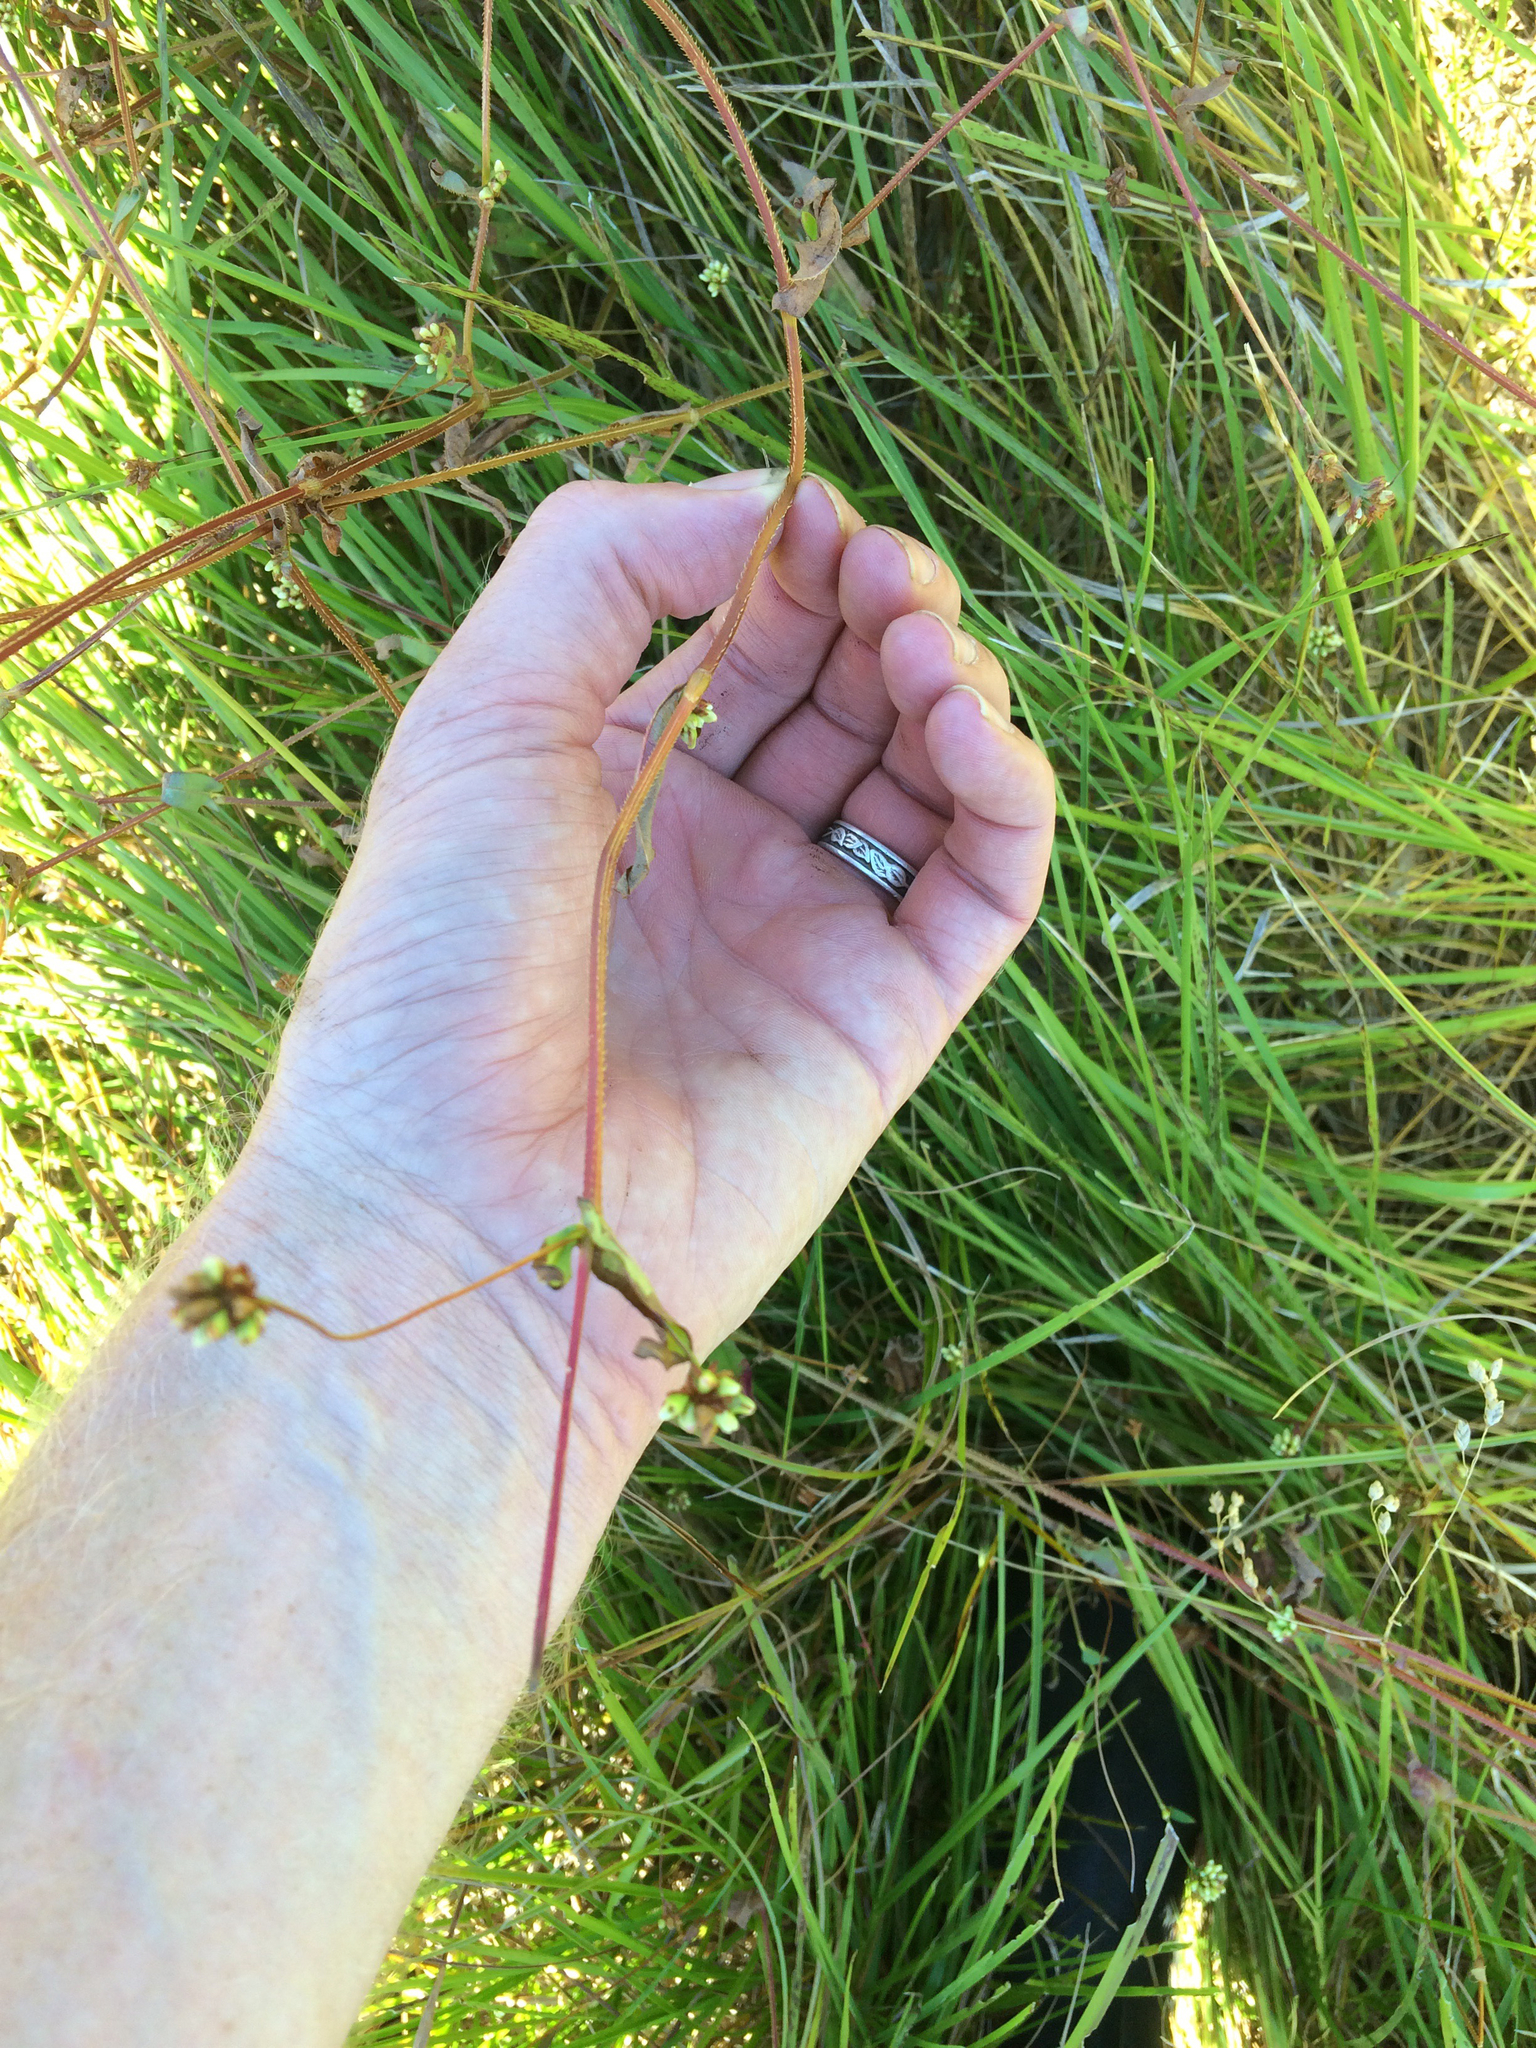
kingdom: Plantae
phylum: Tracheophyta
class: Magnoliopsida
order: Caryophyllales
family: Polygonaceae
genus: Persicaria
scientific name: Persicaria sagittata
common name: American tearthumb
